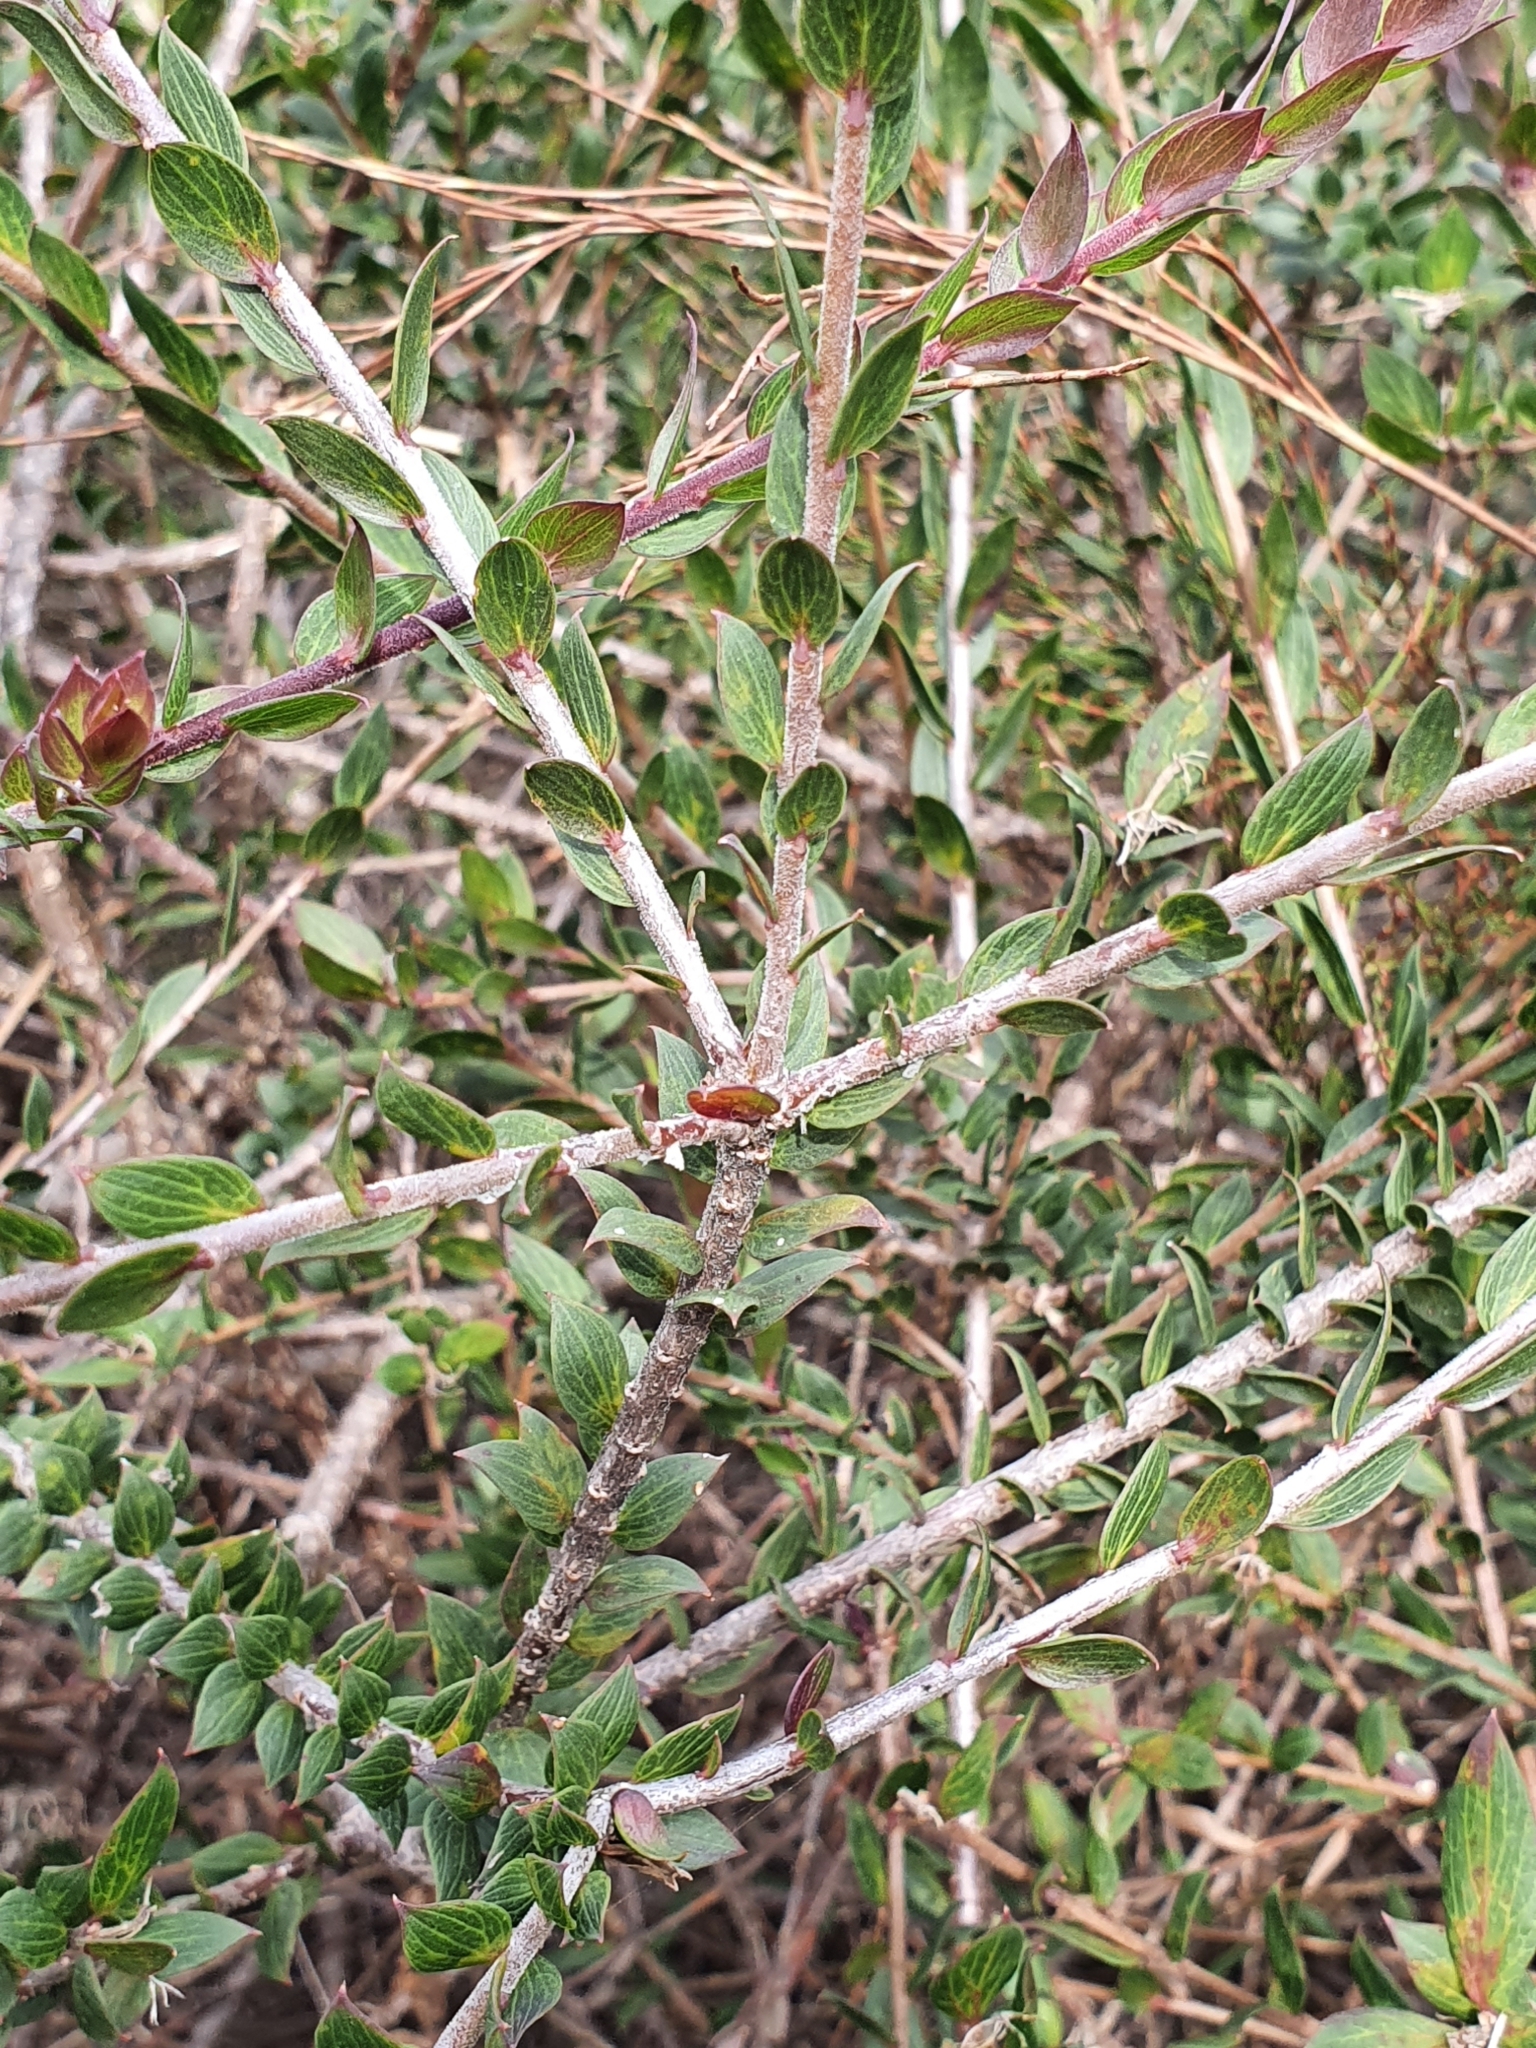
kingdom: Plantae
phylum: Tracheophyta
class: Magnoliopsida
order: Apiales
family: Apiaceae
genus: Platysace
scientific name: Platysace lanceolata
